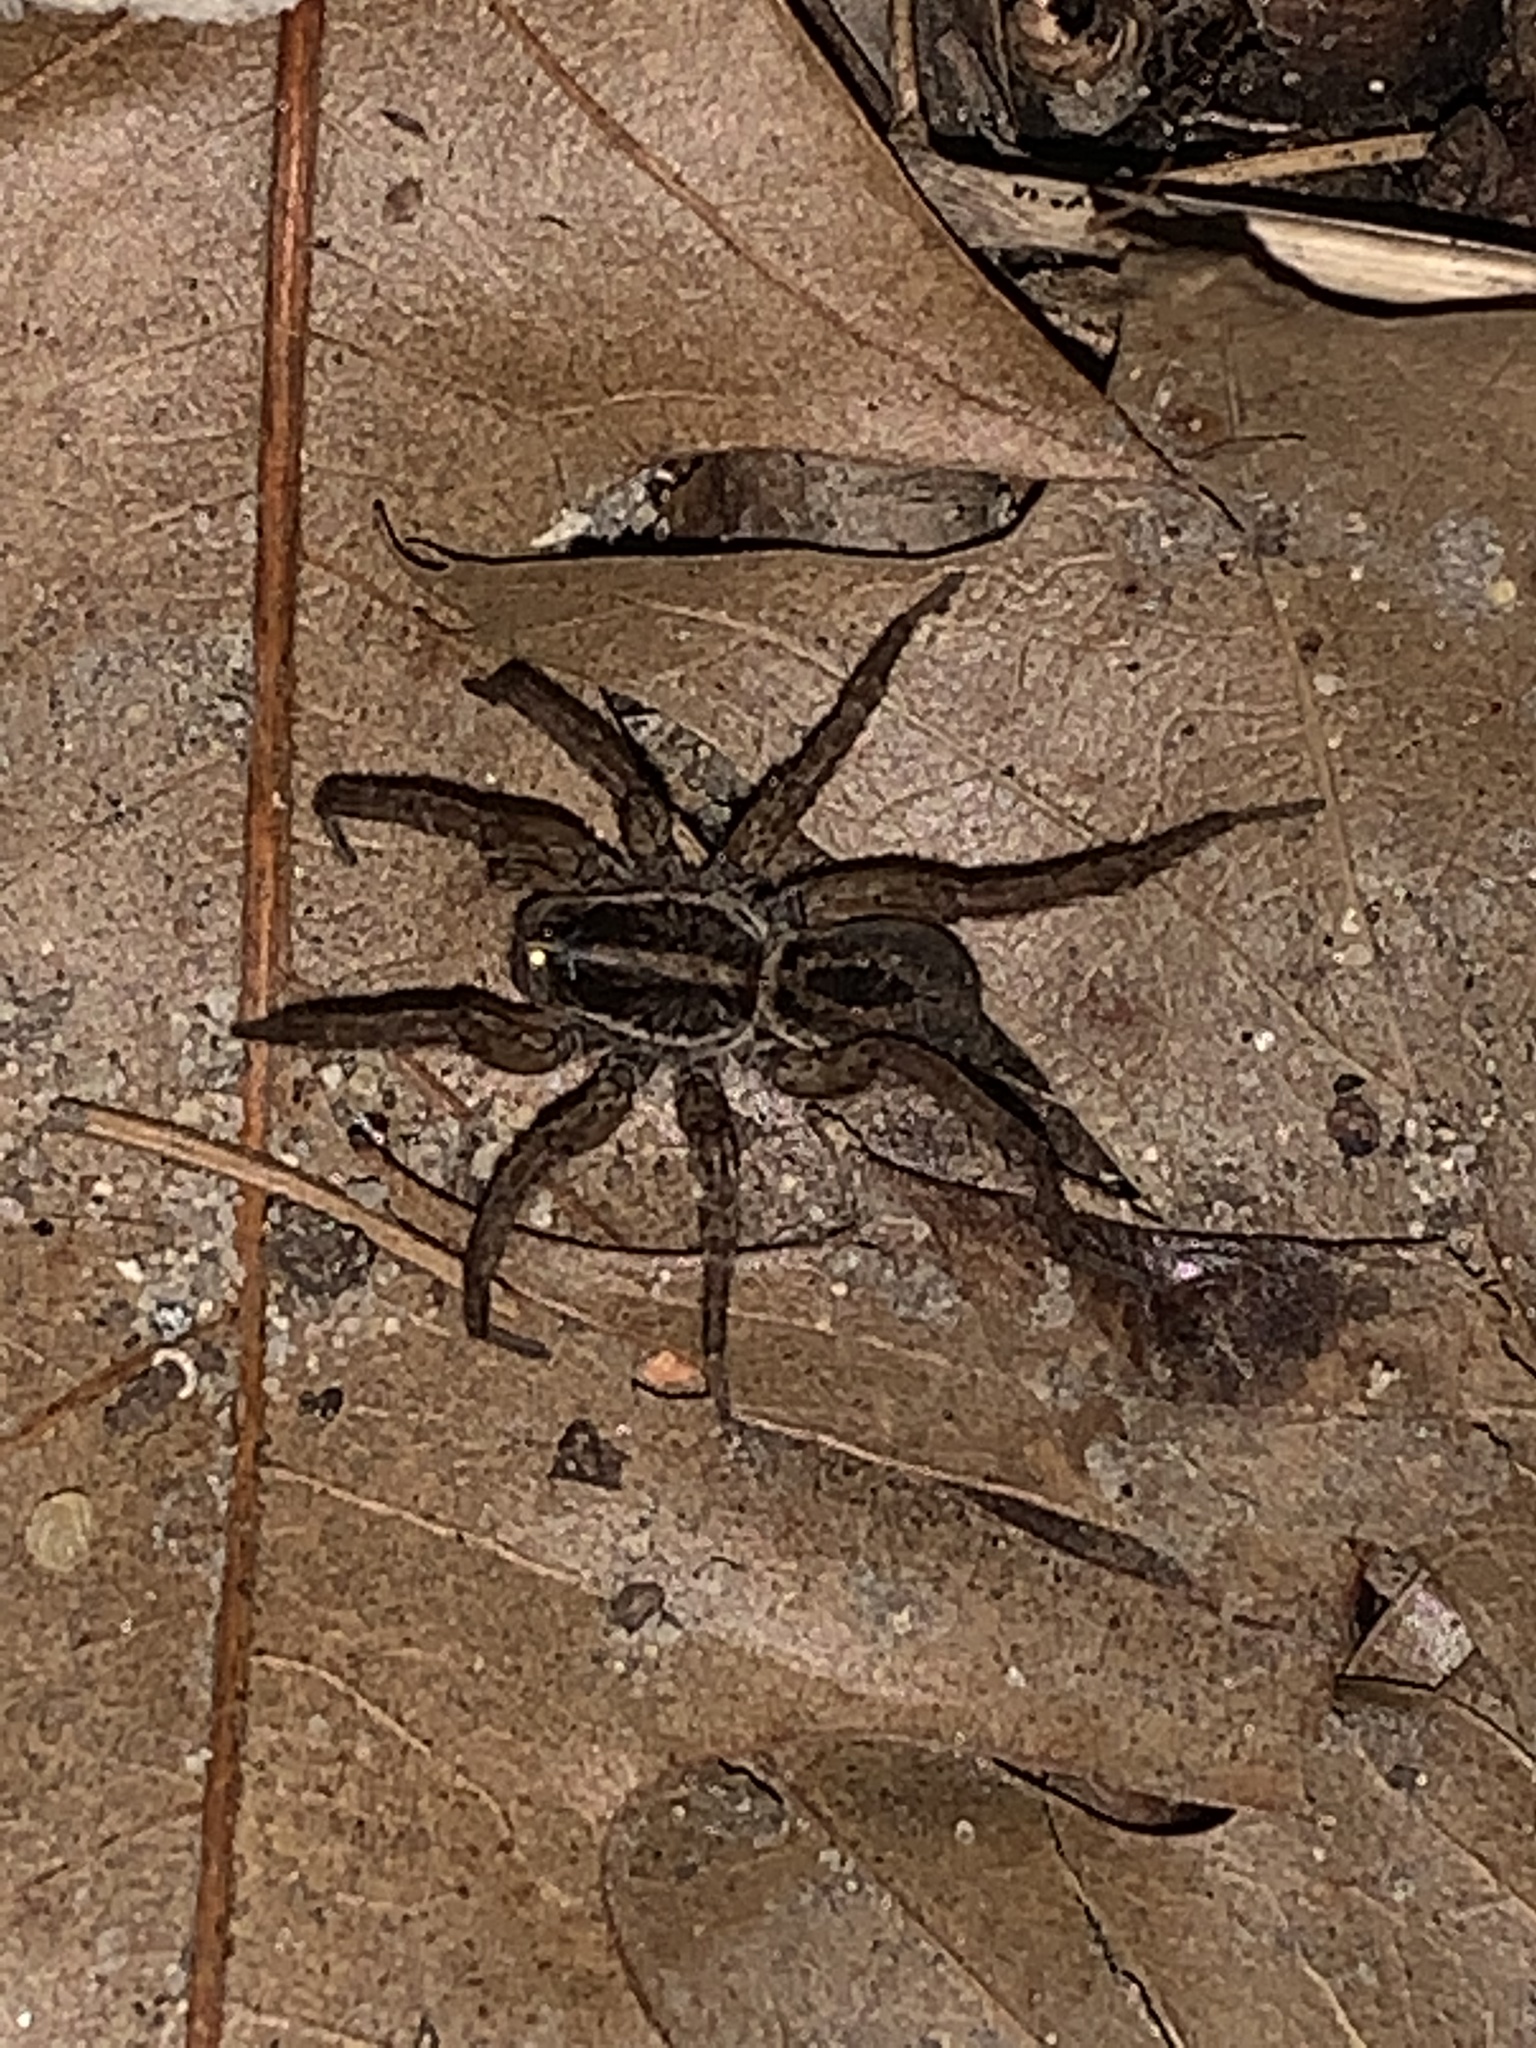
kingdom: Animalia
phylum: Arthropoda
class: Arachnida
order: Araneae
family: Lycosidae
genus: Tigrosa
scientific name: Tigrosa annexa
